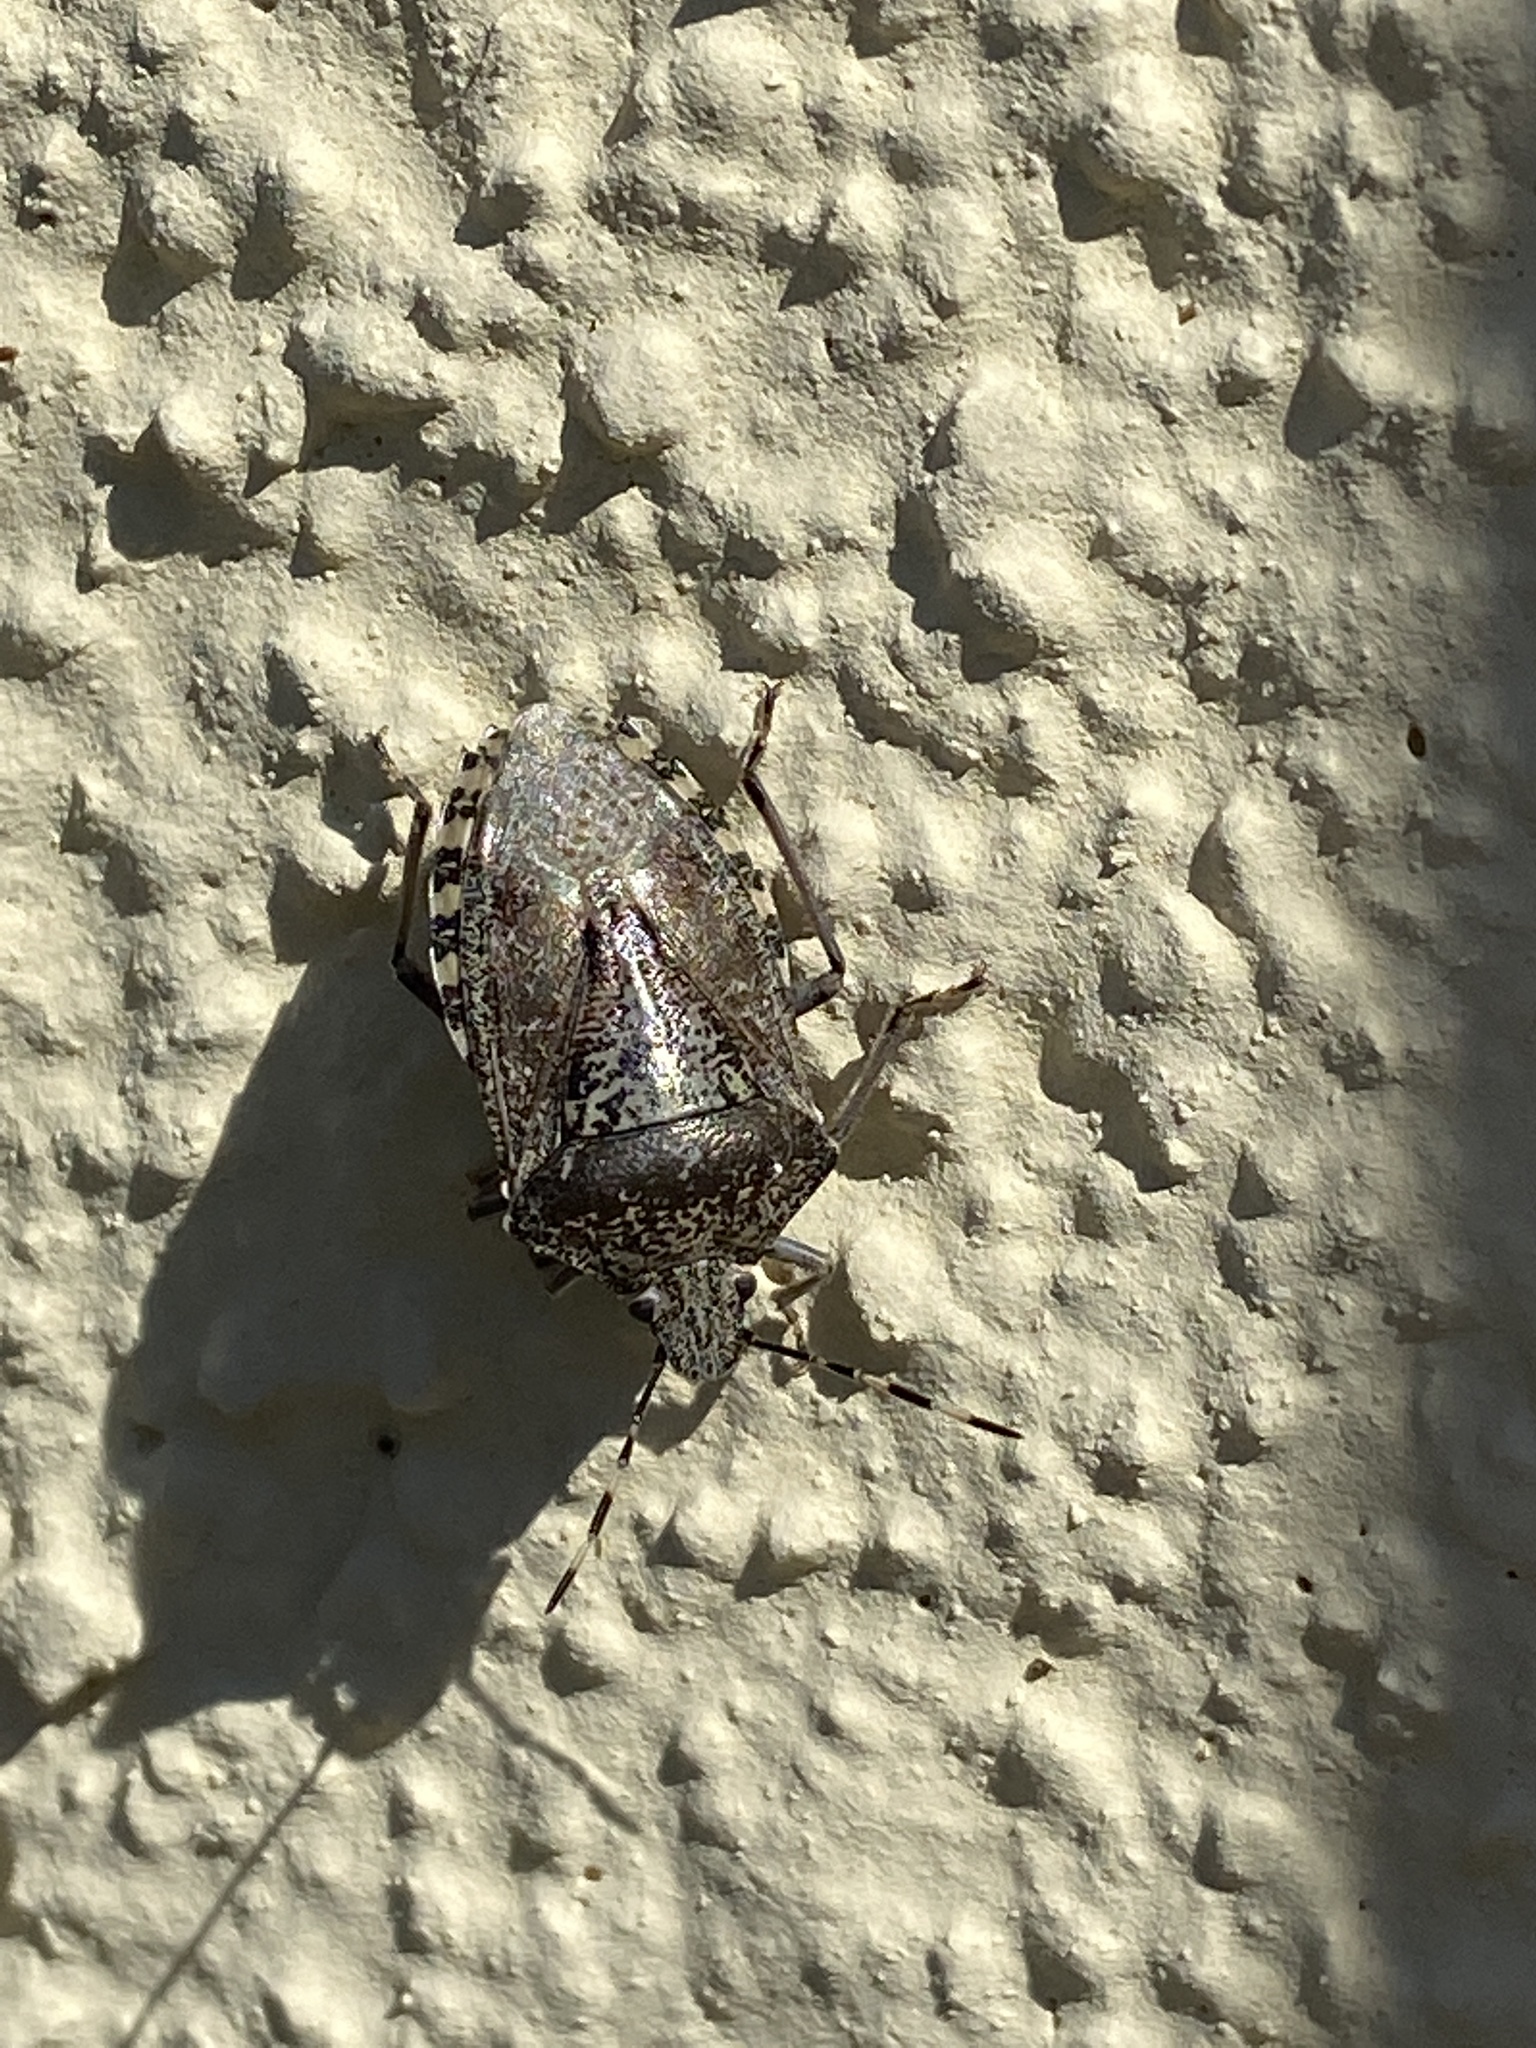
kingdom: Animalia
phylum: Arthropoda
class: Insecta
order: Hemiptera
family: Pentatomidae
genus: Rhaphigaster
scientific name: Rhaphigaster nebulosa
